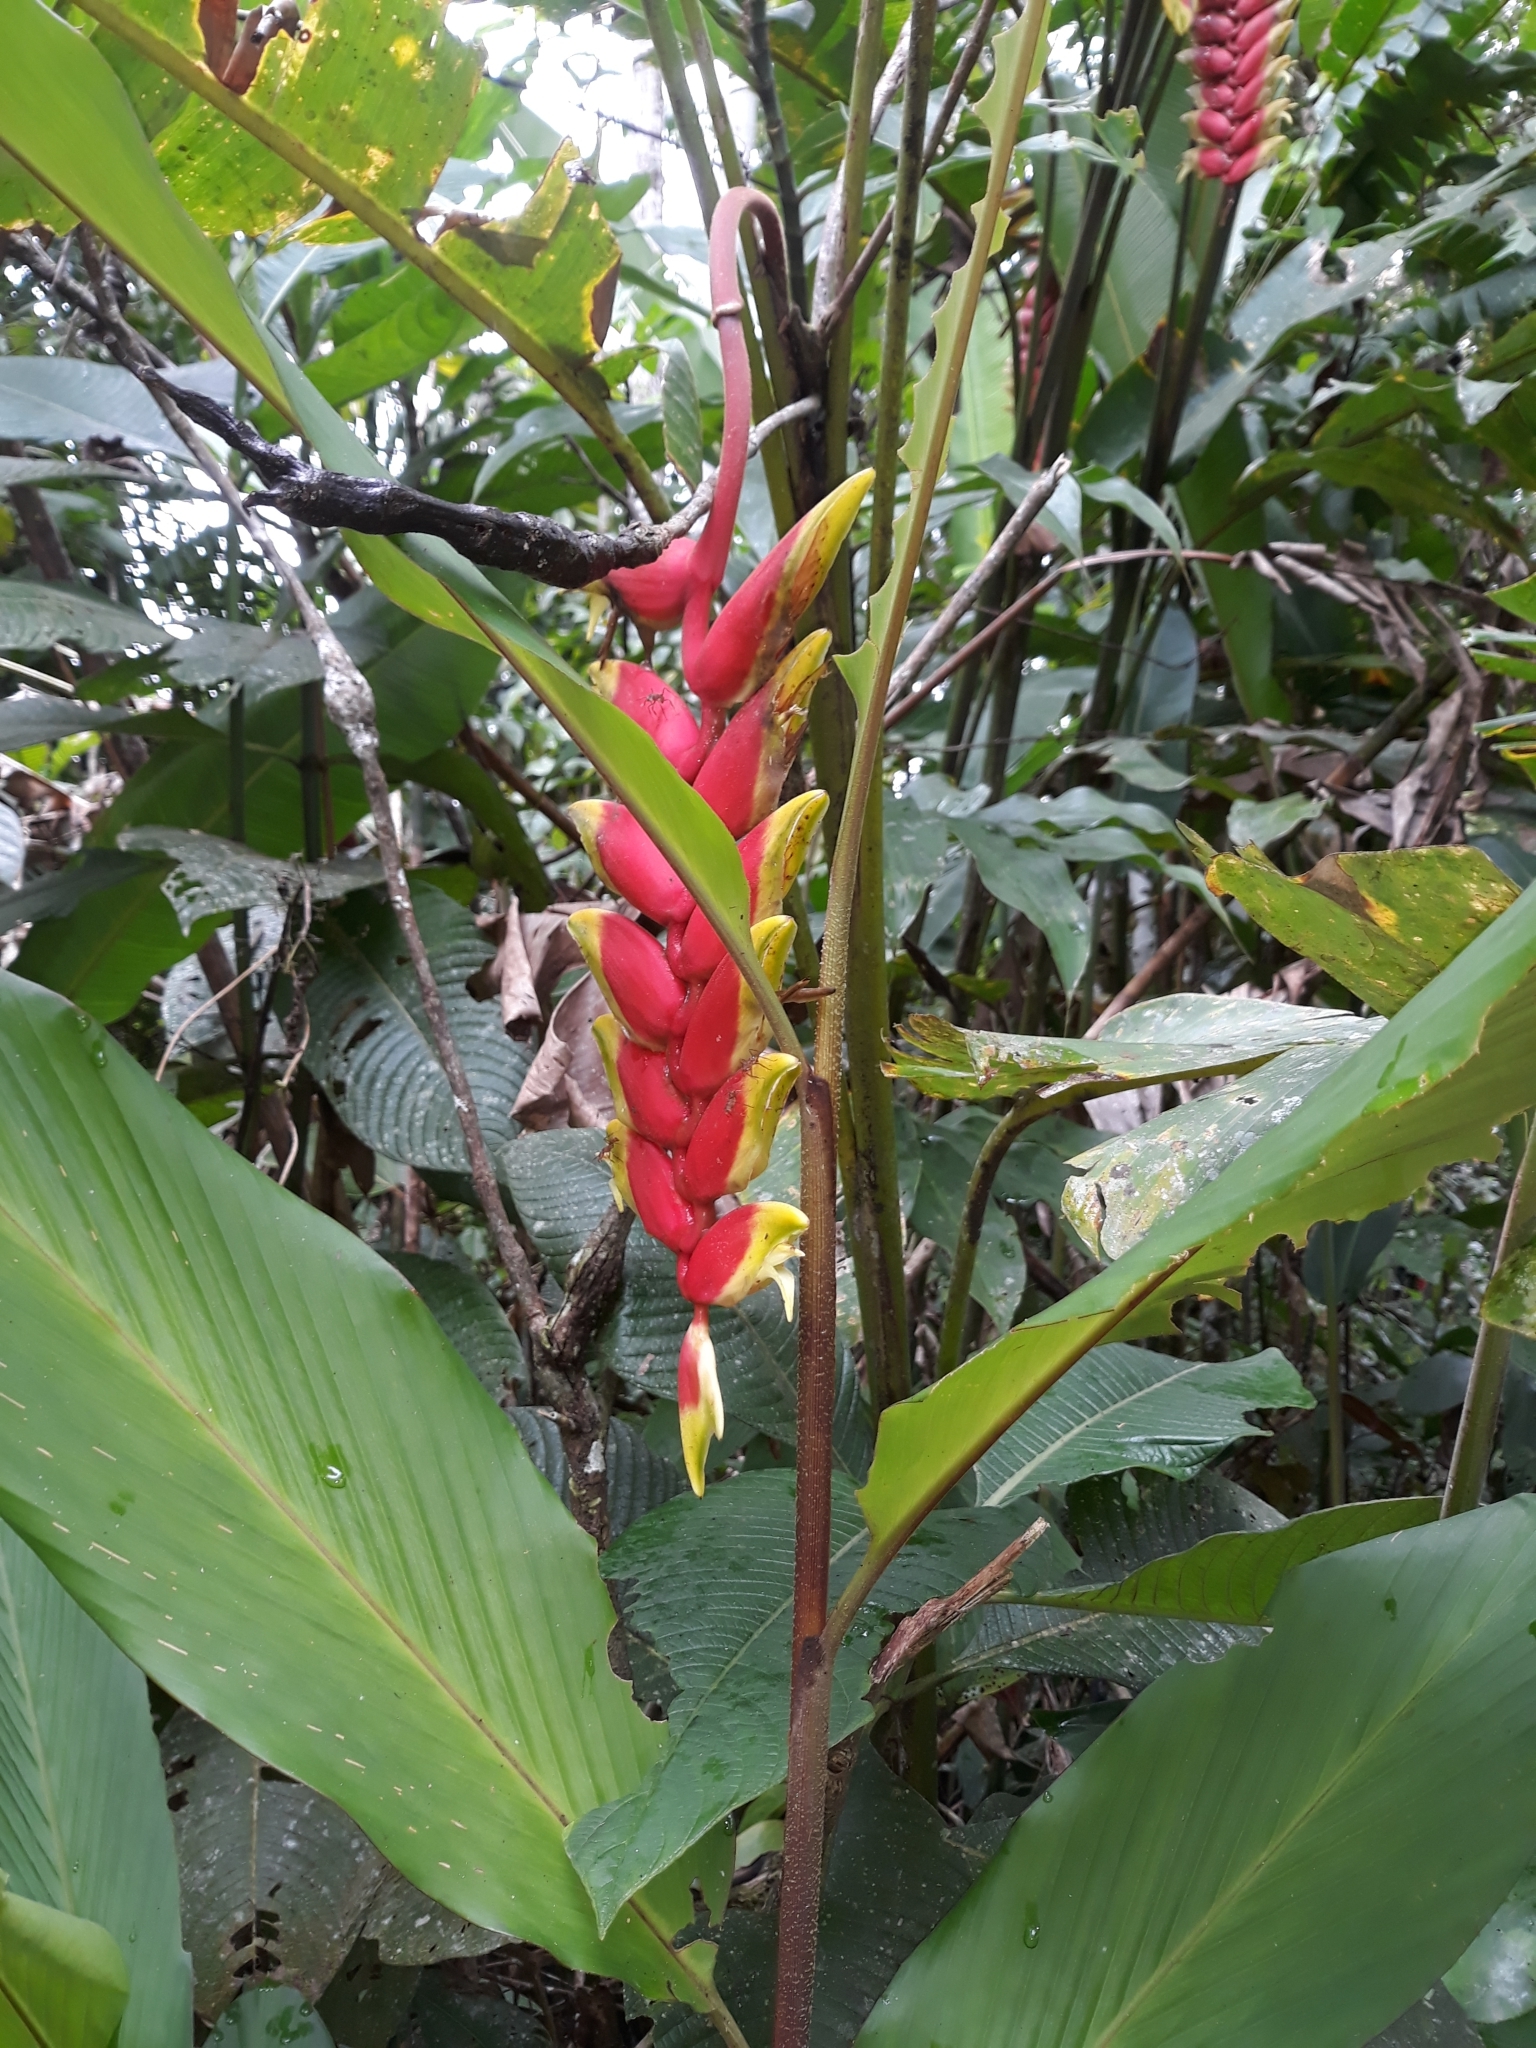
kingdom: Plantae
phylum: Tracheophyta
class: Liliopsida
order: Zingiberales
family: Heliconiaceae
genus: Heliconia
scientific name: Heliconia rostrata
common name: False bird of paradise
